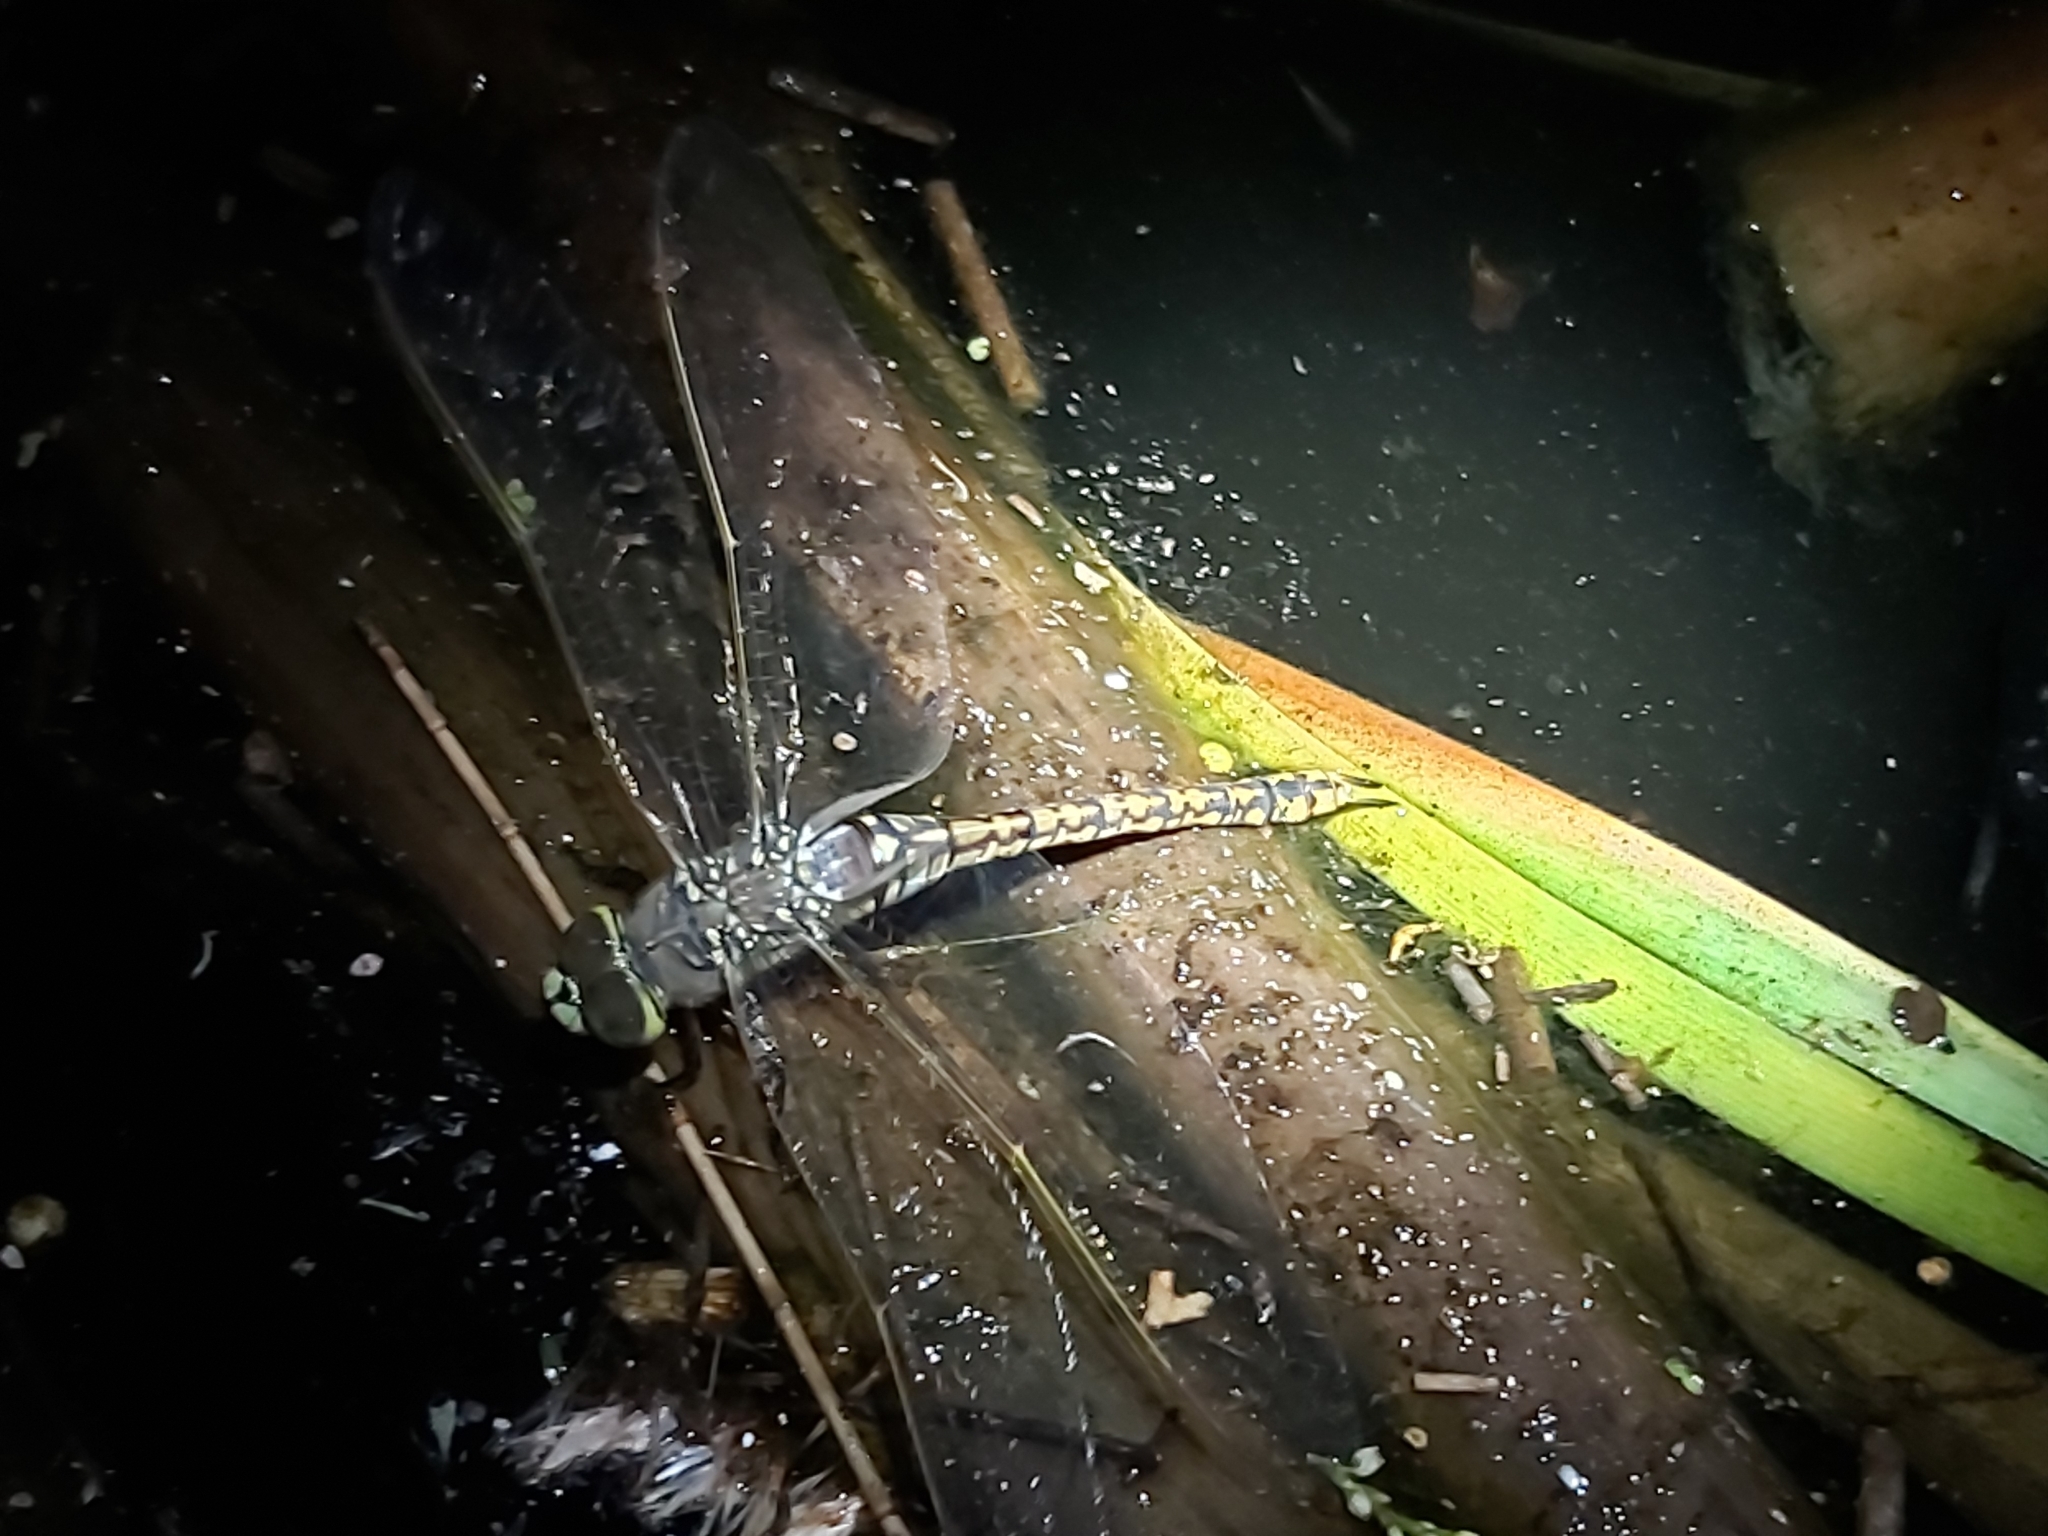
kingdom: Animalia
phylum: Arthropoda
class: Insecta
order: Odonata
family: Aeshnidae
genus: Anax
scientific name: Anax papuensis
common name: Australian emperor
